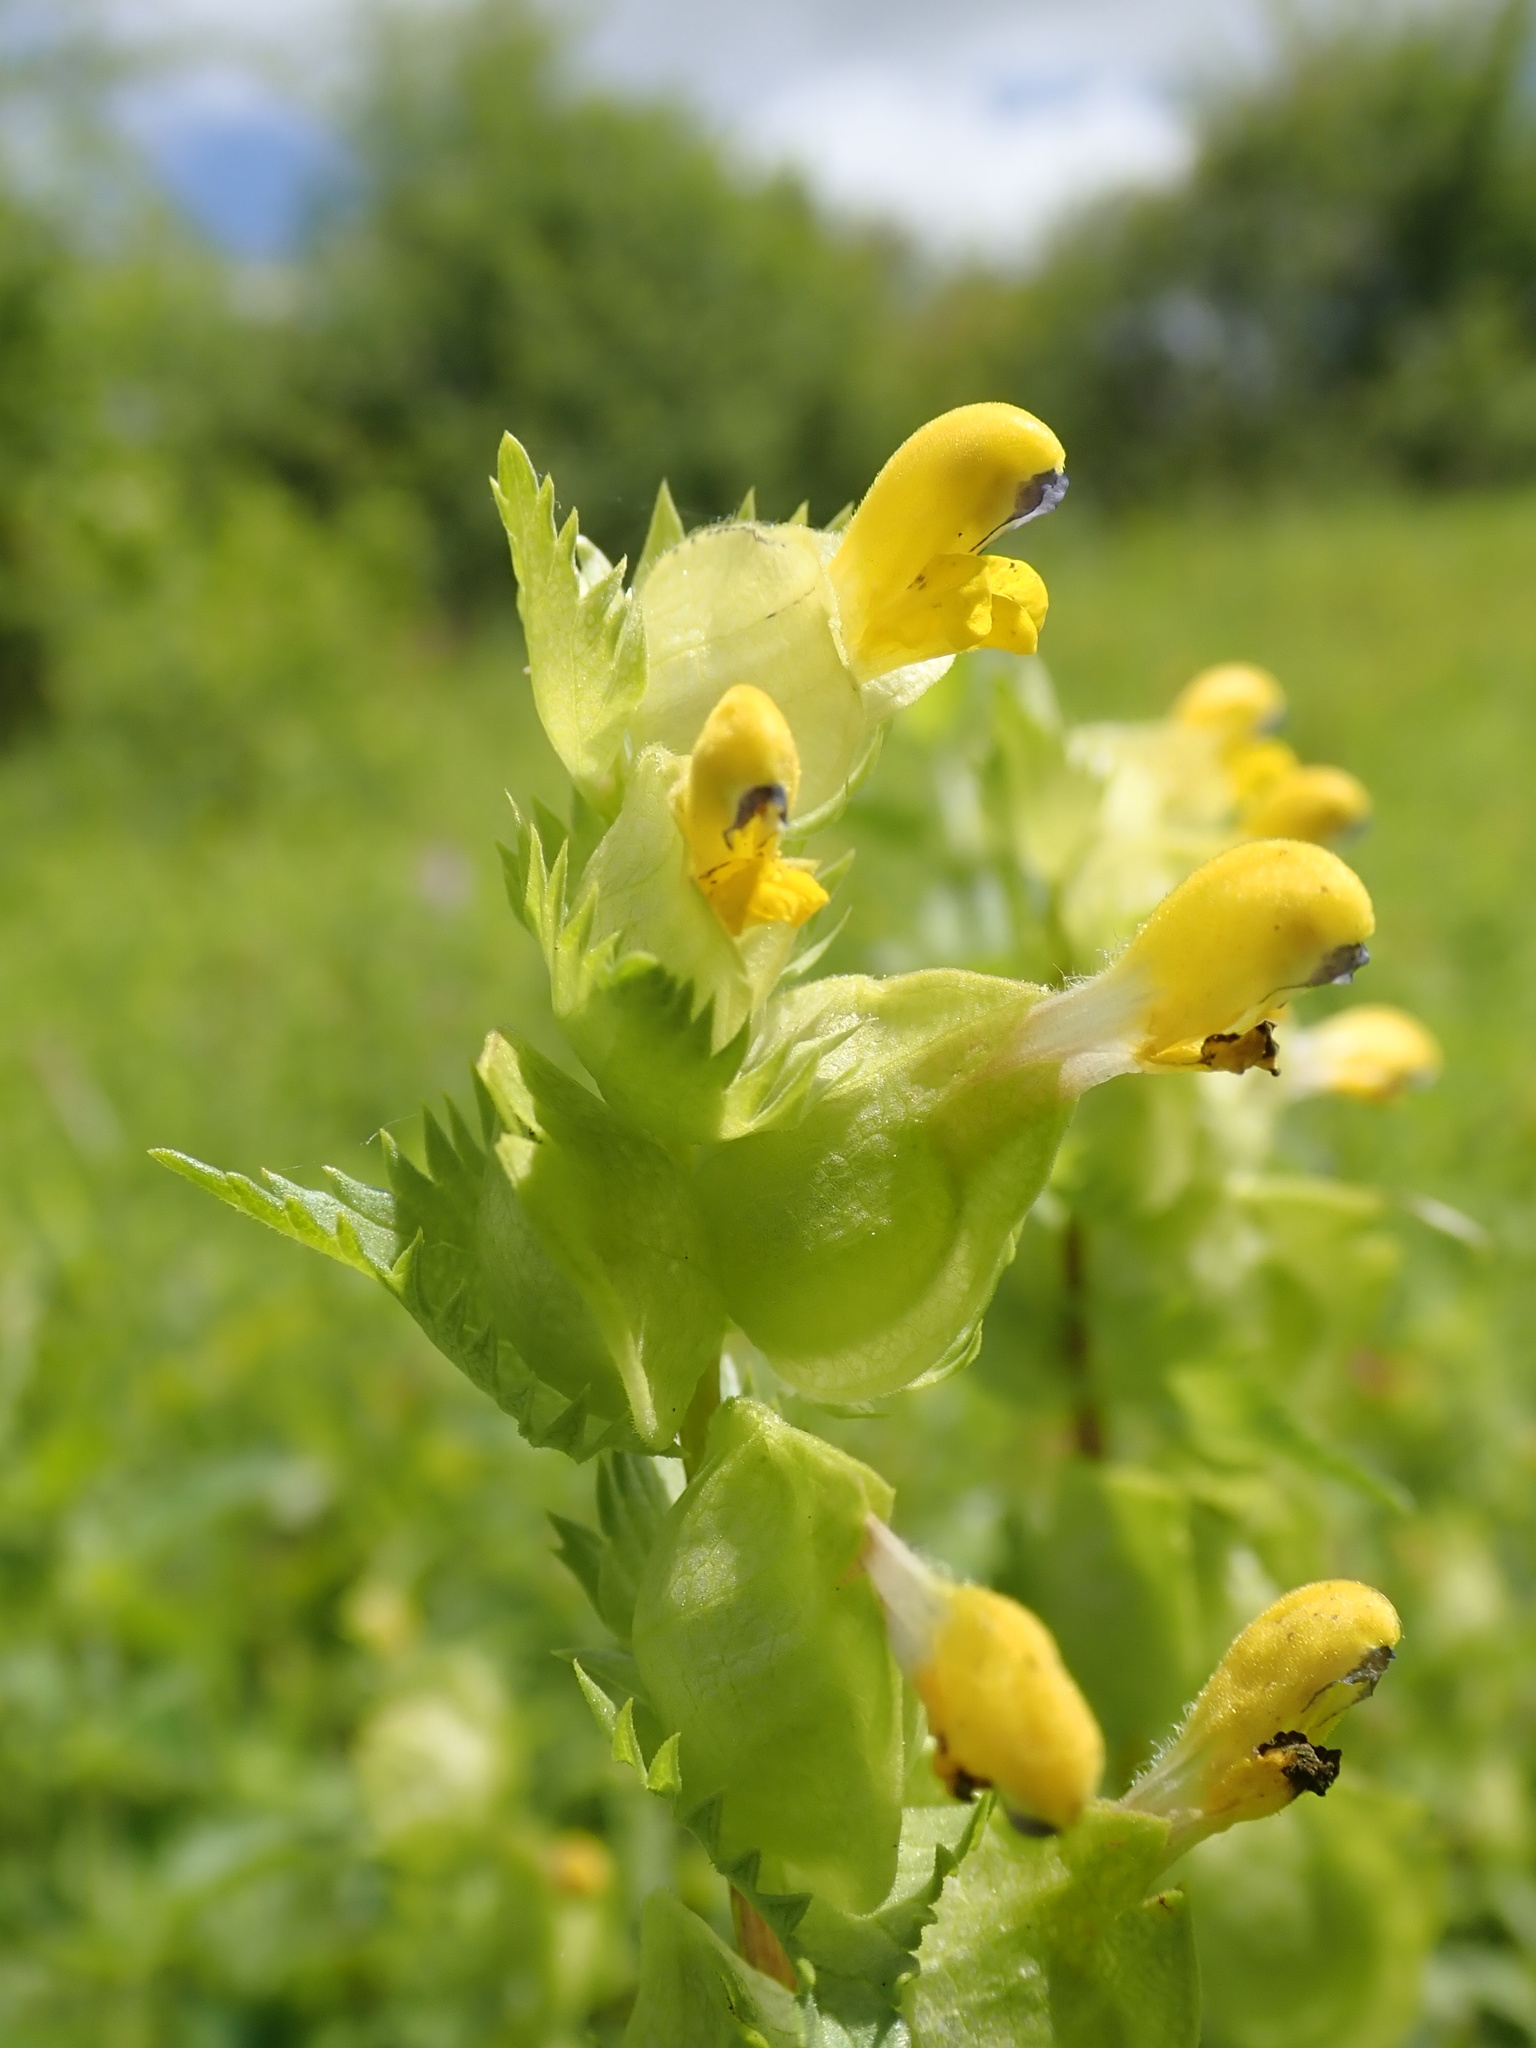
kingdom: Plantae
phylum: Tracheophyta
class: Magnoliopsida
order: Lamiales
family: Orobanchaceae
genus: Rhinanthus
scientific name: Rhinanthus minor
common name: Yellow-rattle
